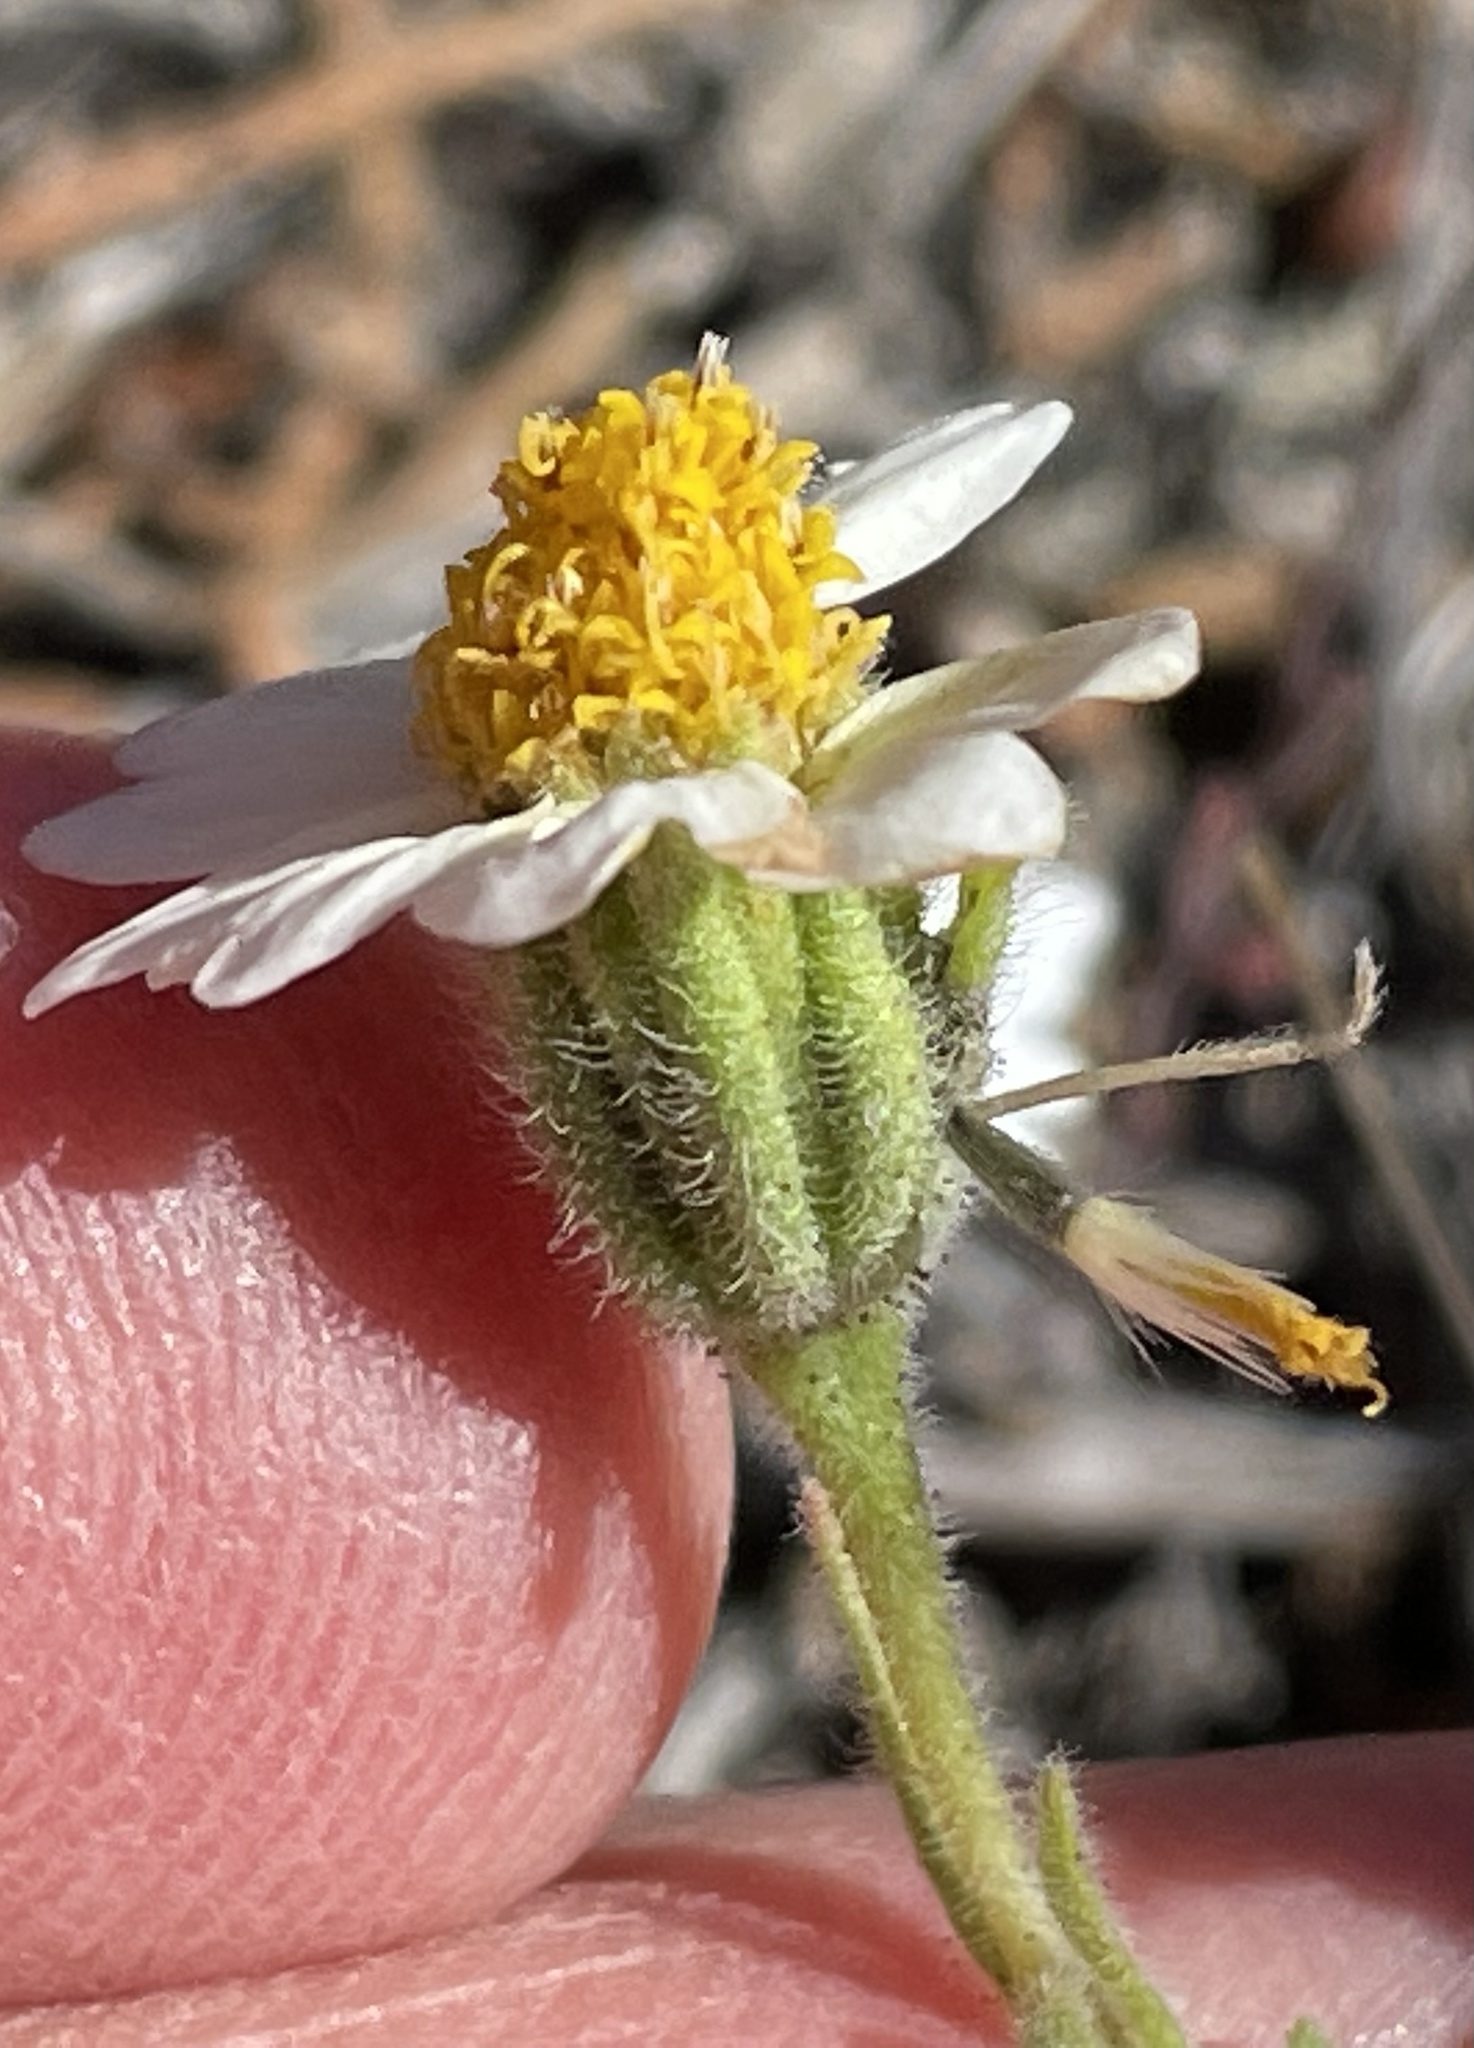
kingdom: Plantae
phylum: Tracheophyta
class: Magnoliopsida
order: Asterales
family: Asteraceae
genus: Layia
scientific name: Layia glandulosa
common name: White layia
